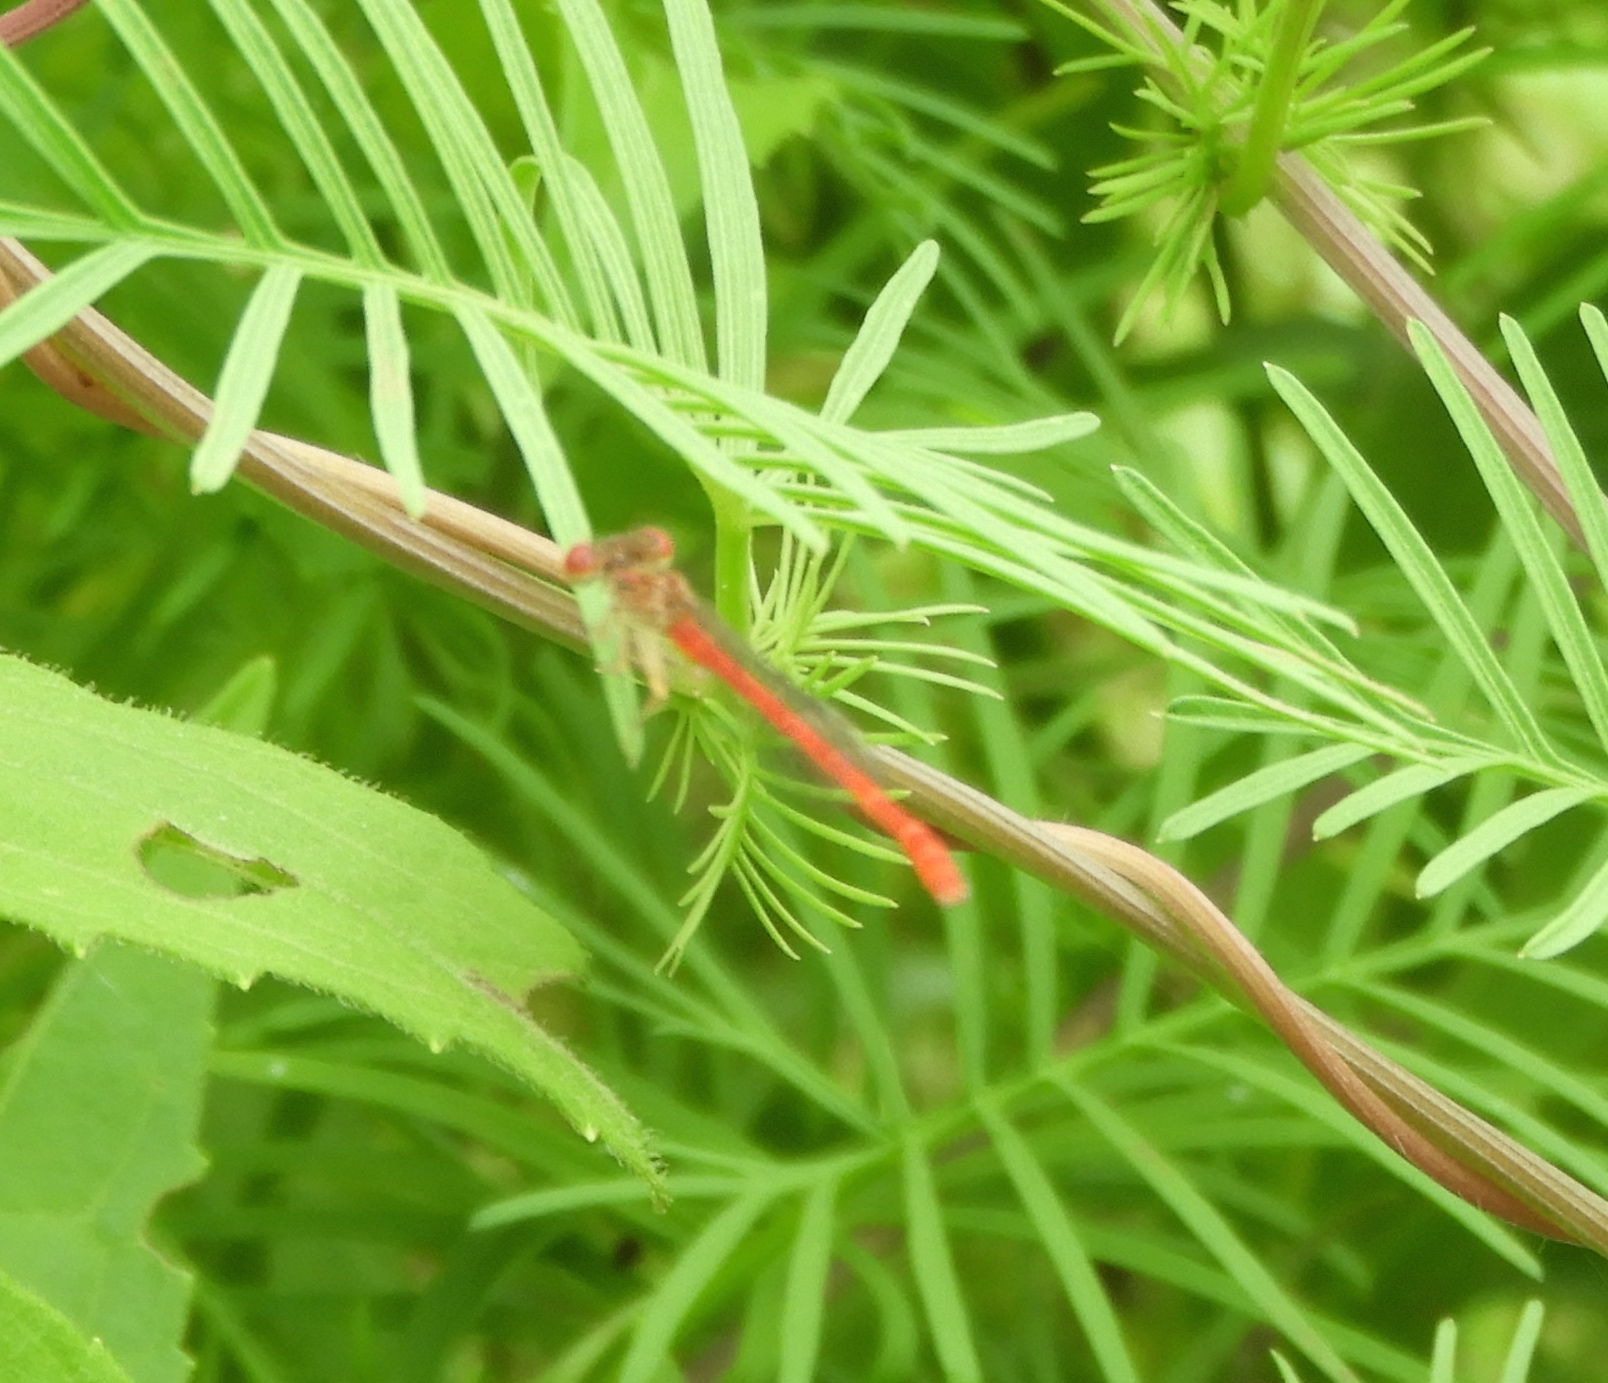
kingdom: Animalia
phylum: Arthropoda
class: Insecta
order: Odonata
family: Coenagrionidae
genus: Telebasis
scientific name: Telebasis salva
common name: Desert firetail
